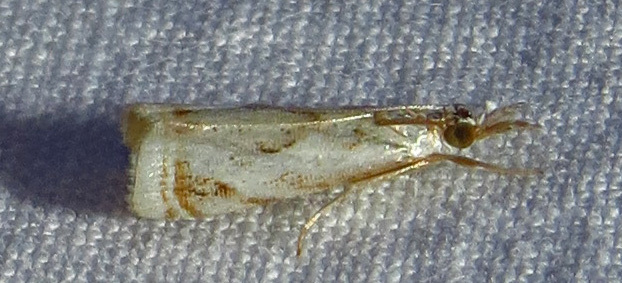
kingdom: Animalia
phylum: Arthropoda
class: Insecta
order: Lepidoptera
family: Crambidae
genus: Microcrambus
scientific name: Microcrambus elegans
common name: Elegant grass-veneer
